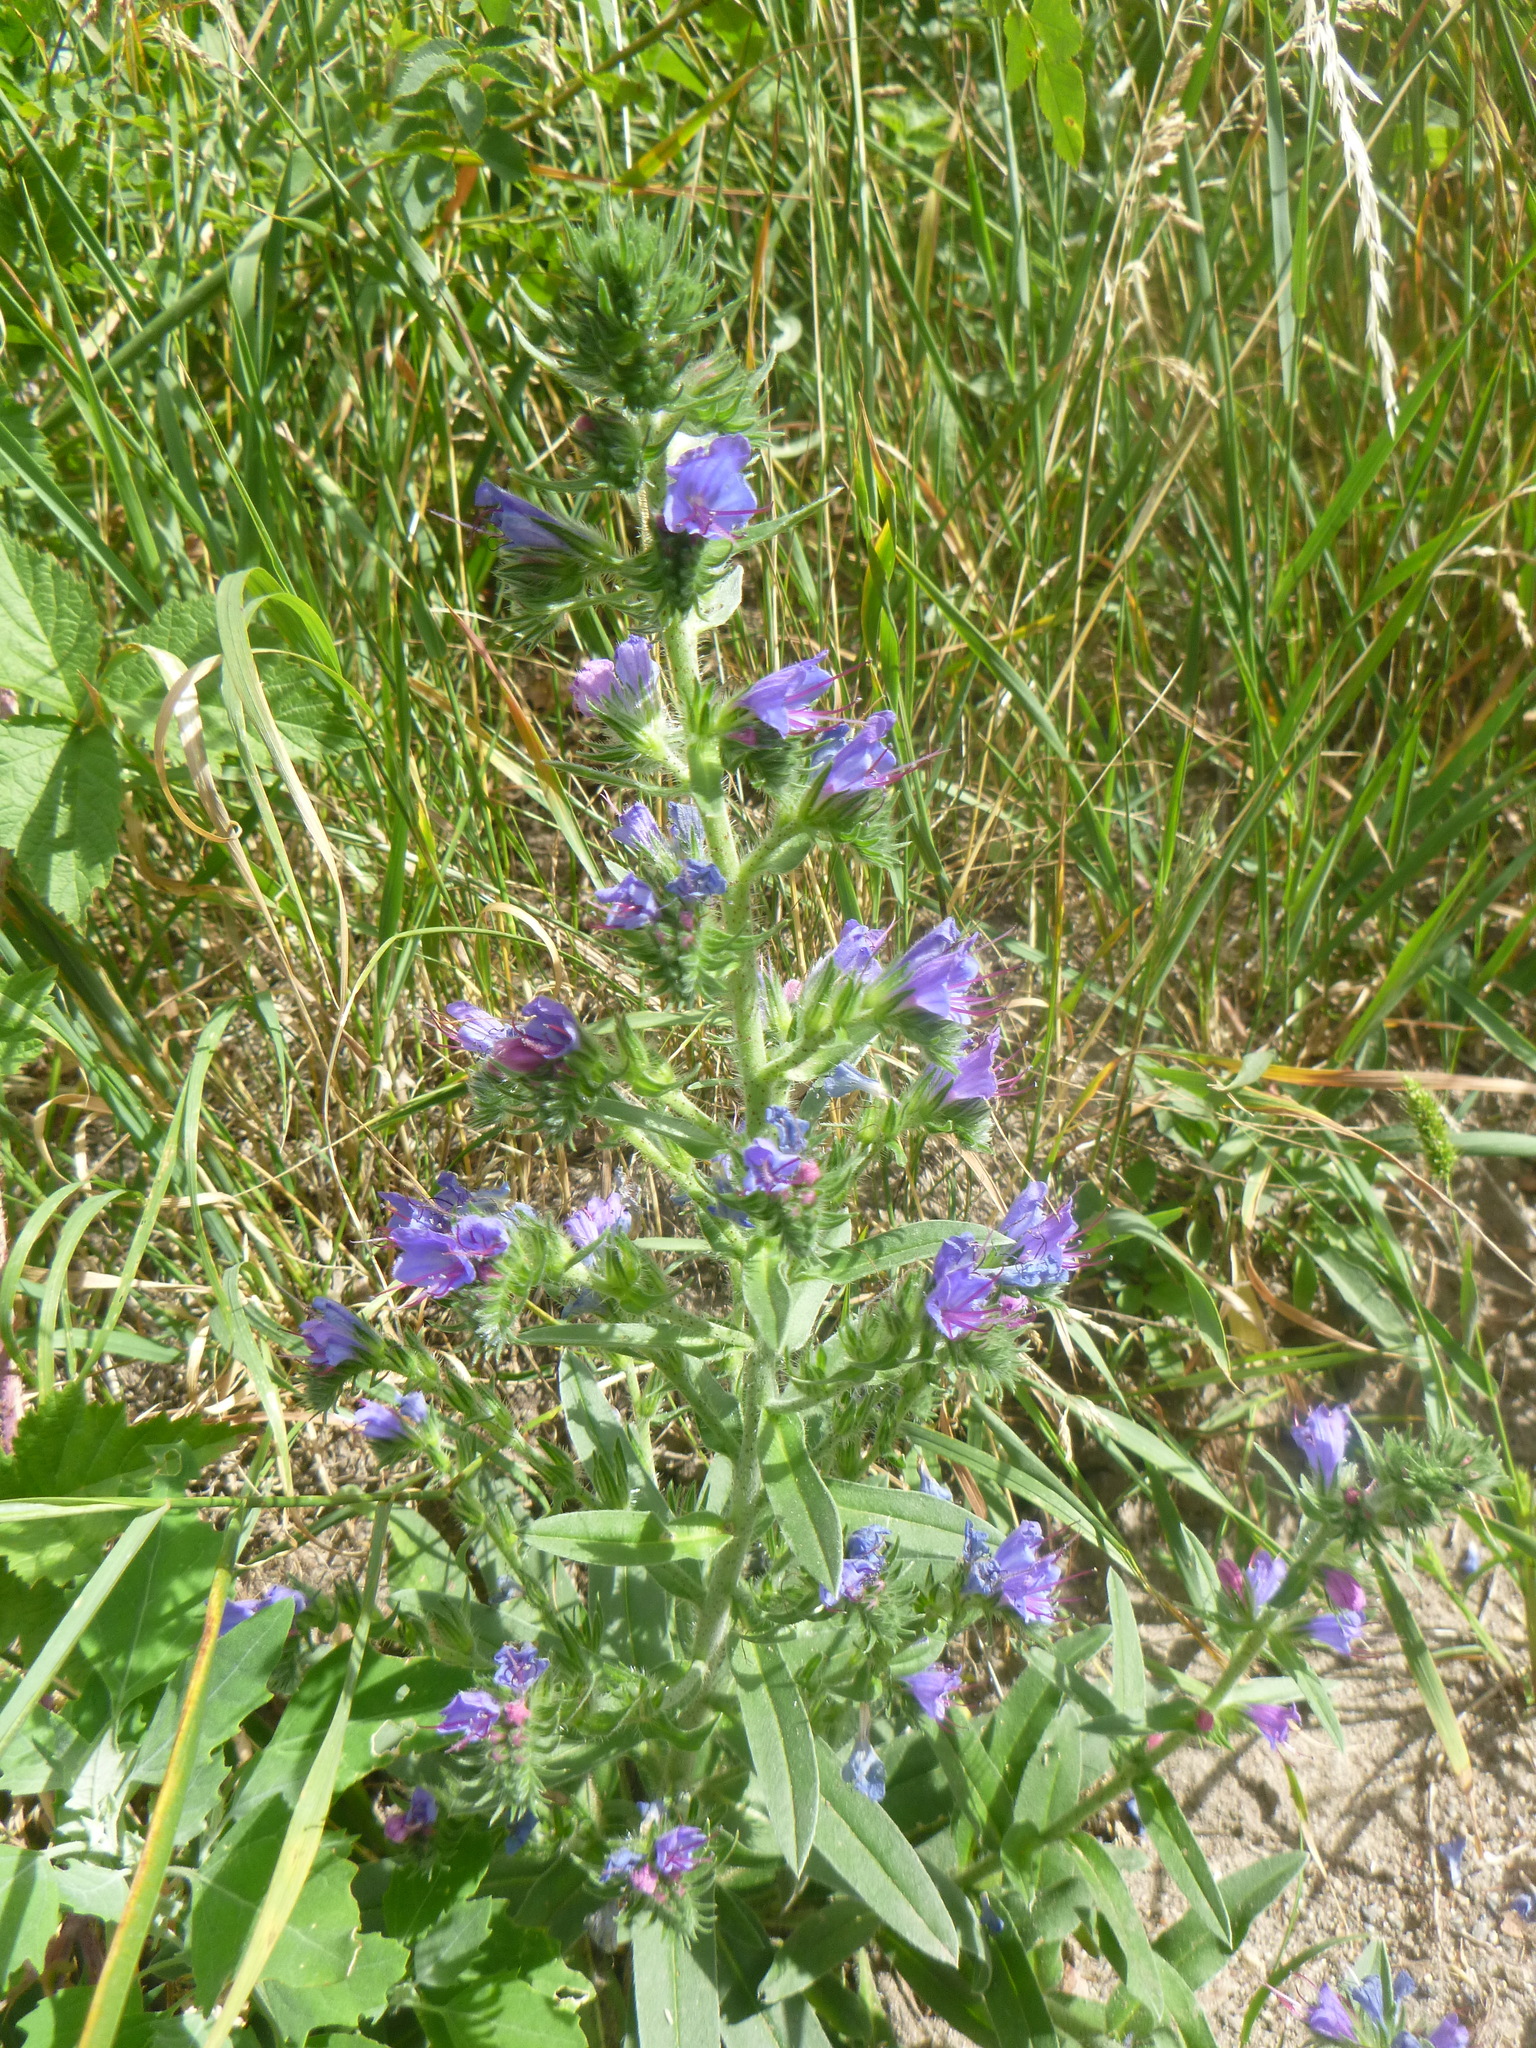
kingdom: Plantae
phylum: Tracheophyta
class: Magnoliopsida
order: Boraginales
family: Boraginaceae
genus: Echium
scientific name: Echium vulgare
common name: Common viper's bugloss
